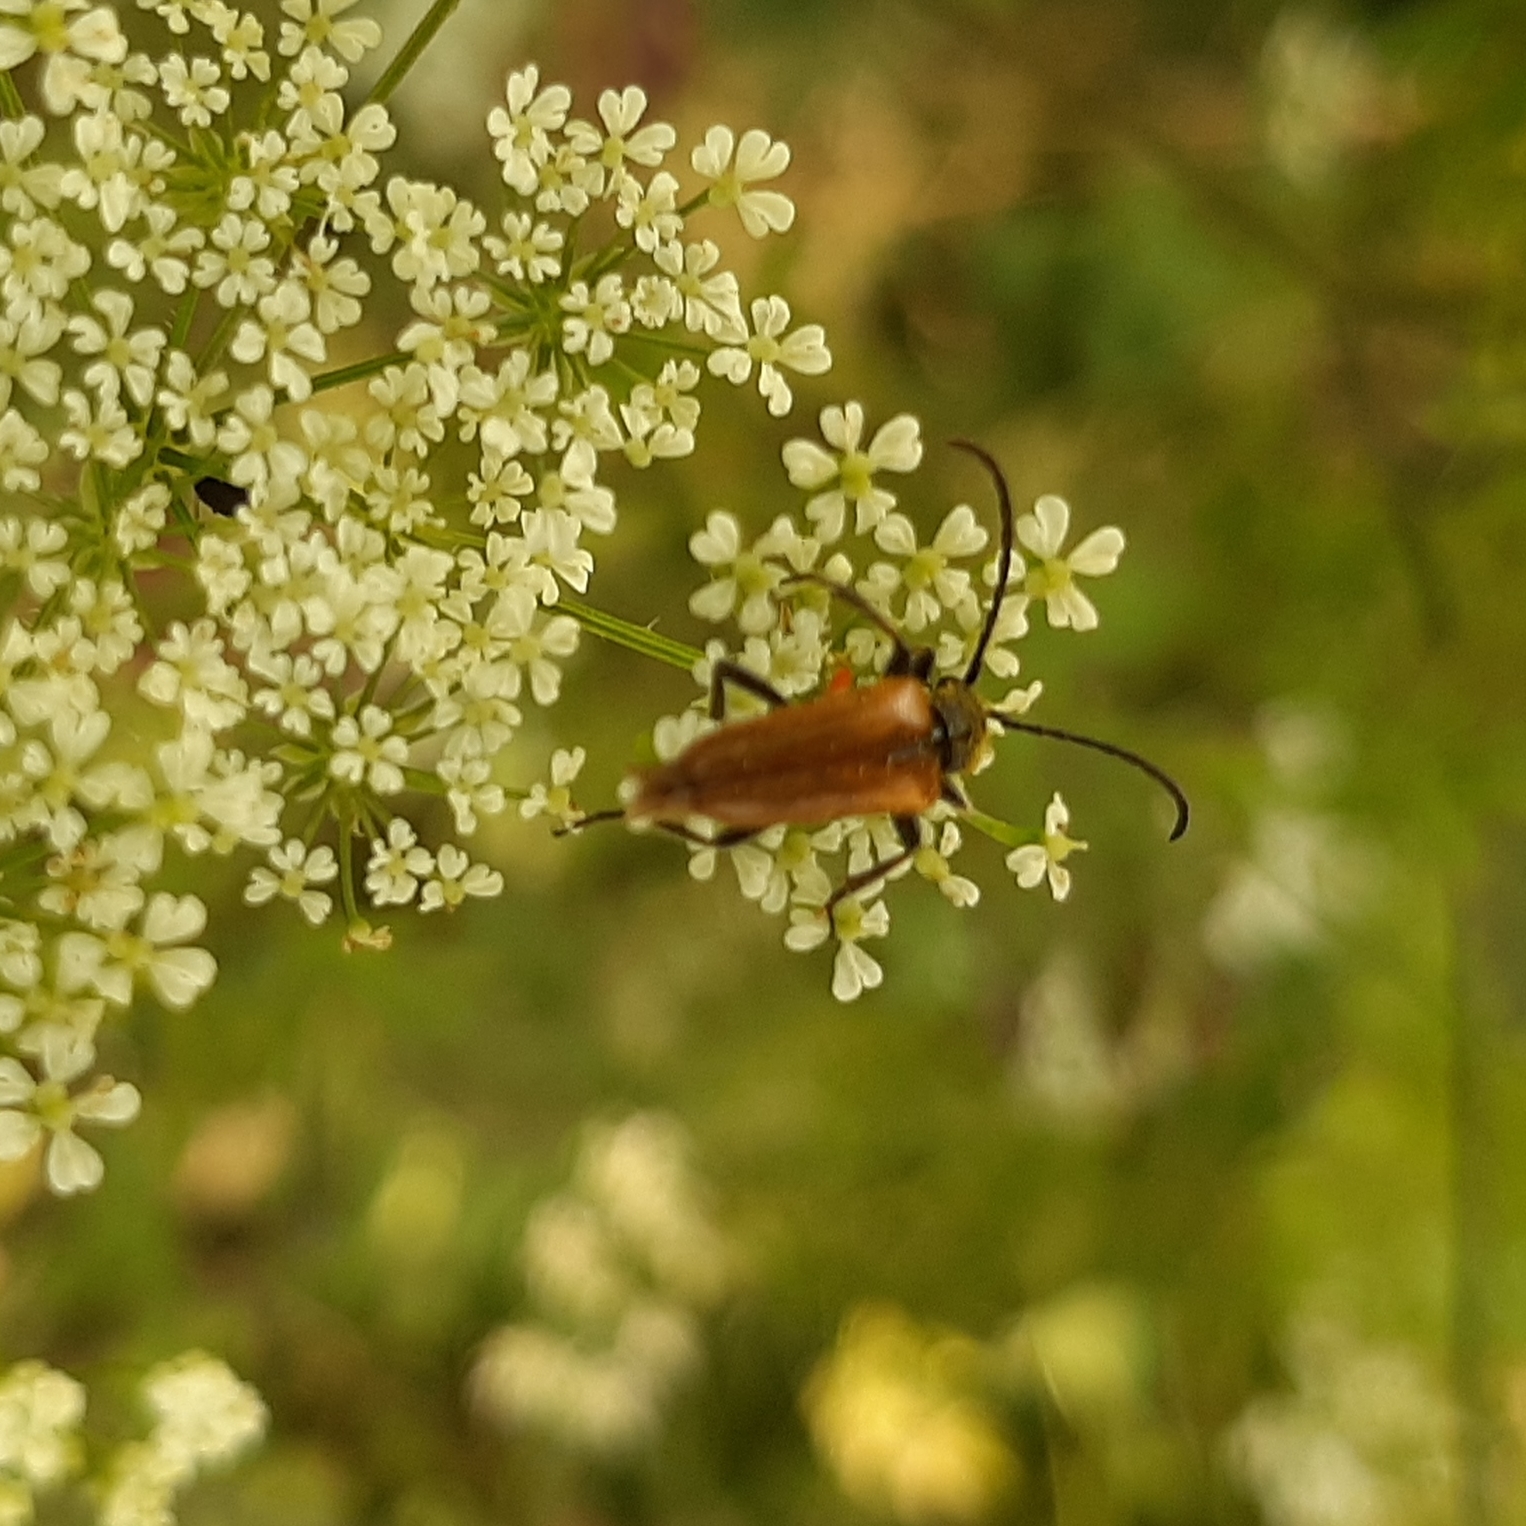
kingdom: Animalia
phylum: Arthropoda
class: Insecta
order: Coleoptera
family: Cerambycidae
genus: Pseudovadonia
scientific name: Pseudovadonia livida
